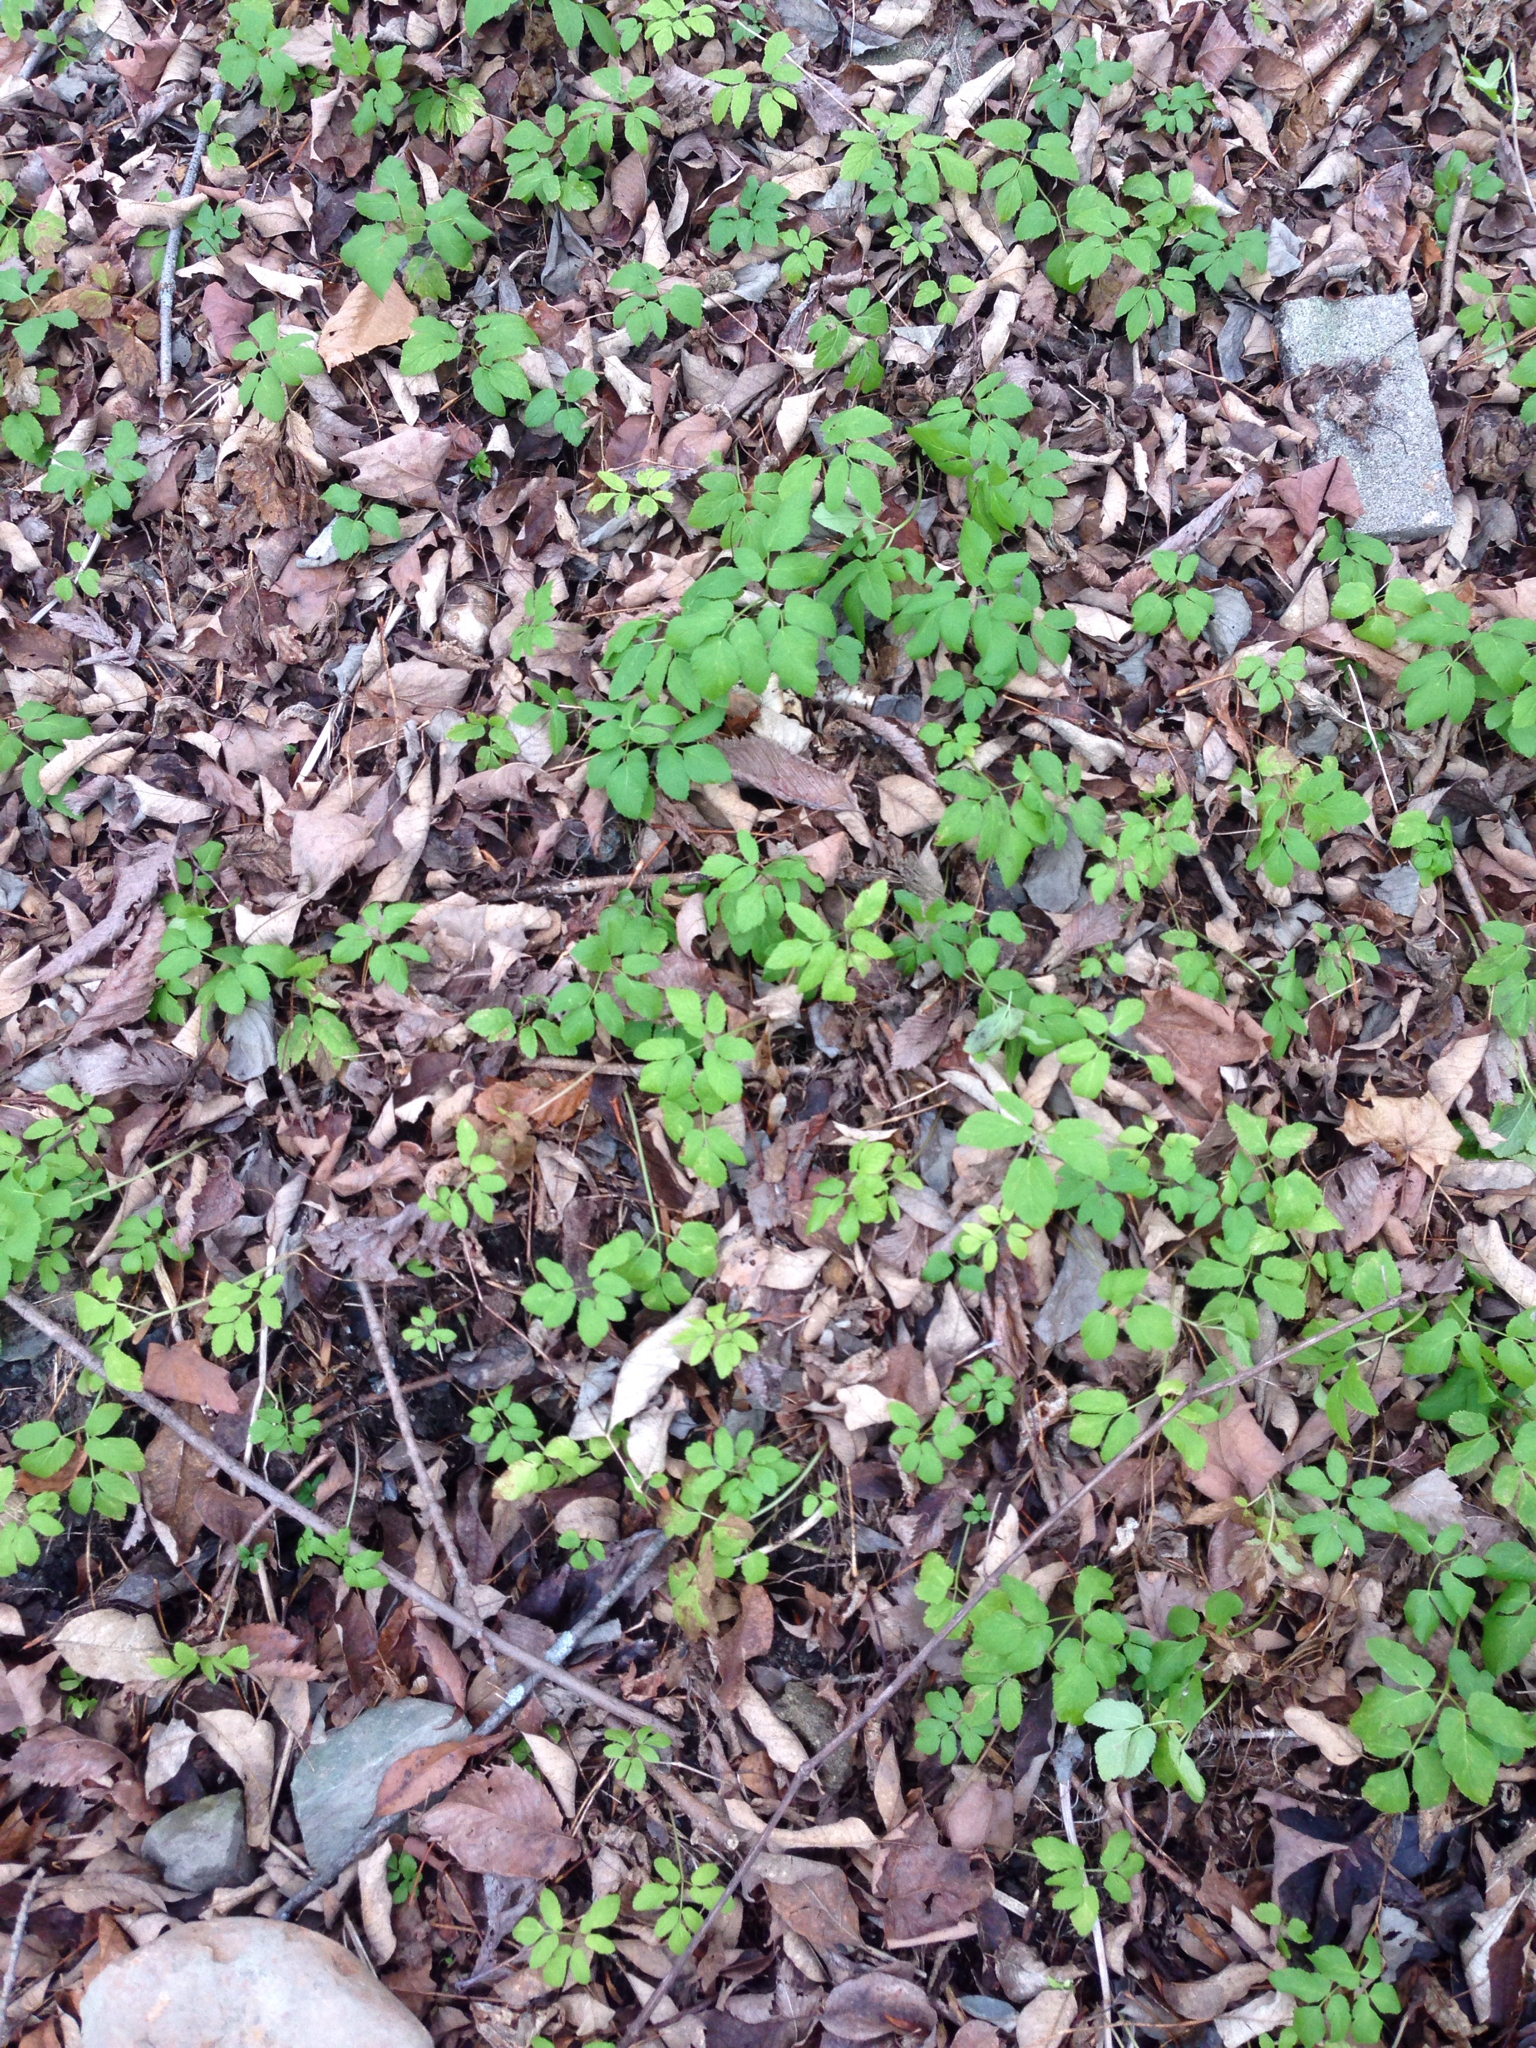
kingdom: Plantae
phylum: Tracheophyta
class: Magnoliopsida
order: Apiales
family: Apiaceae
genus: Aegopodium
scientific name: Aegopodium podagraria
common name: Ground-elder
